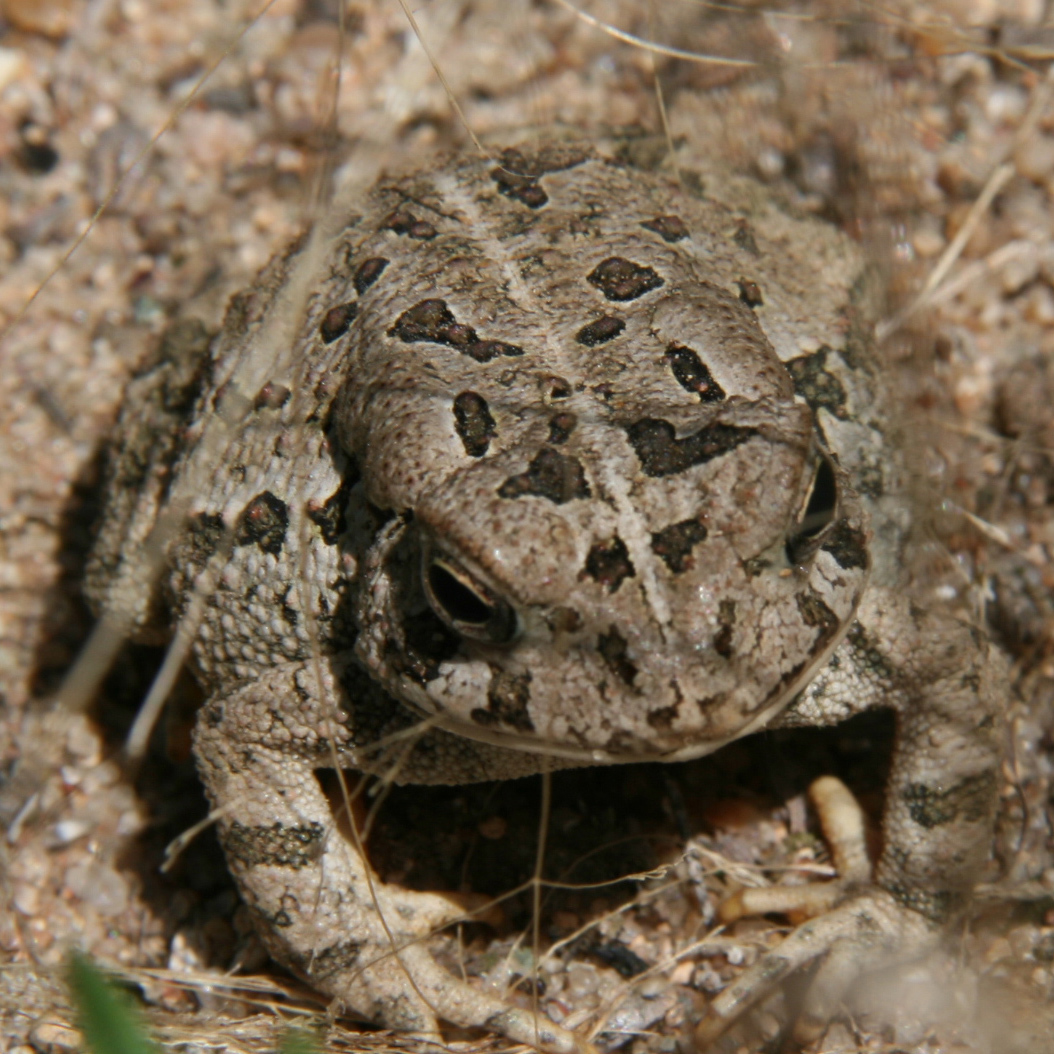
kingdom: Animalia
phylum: Chordata
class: Amphibia
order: Anura
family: Bufonidae
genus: Anaxyrus
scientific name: Anaxyrus fowleri
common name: Fowler's toad
